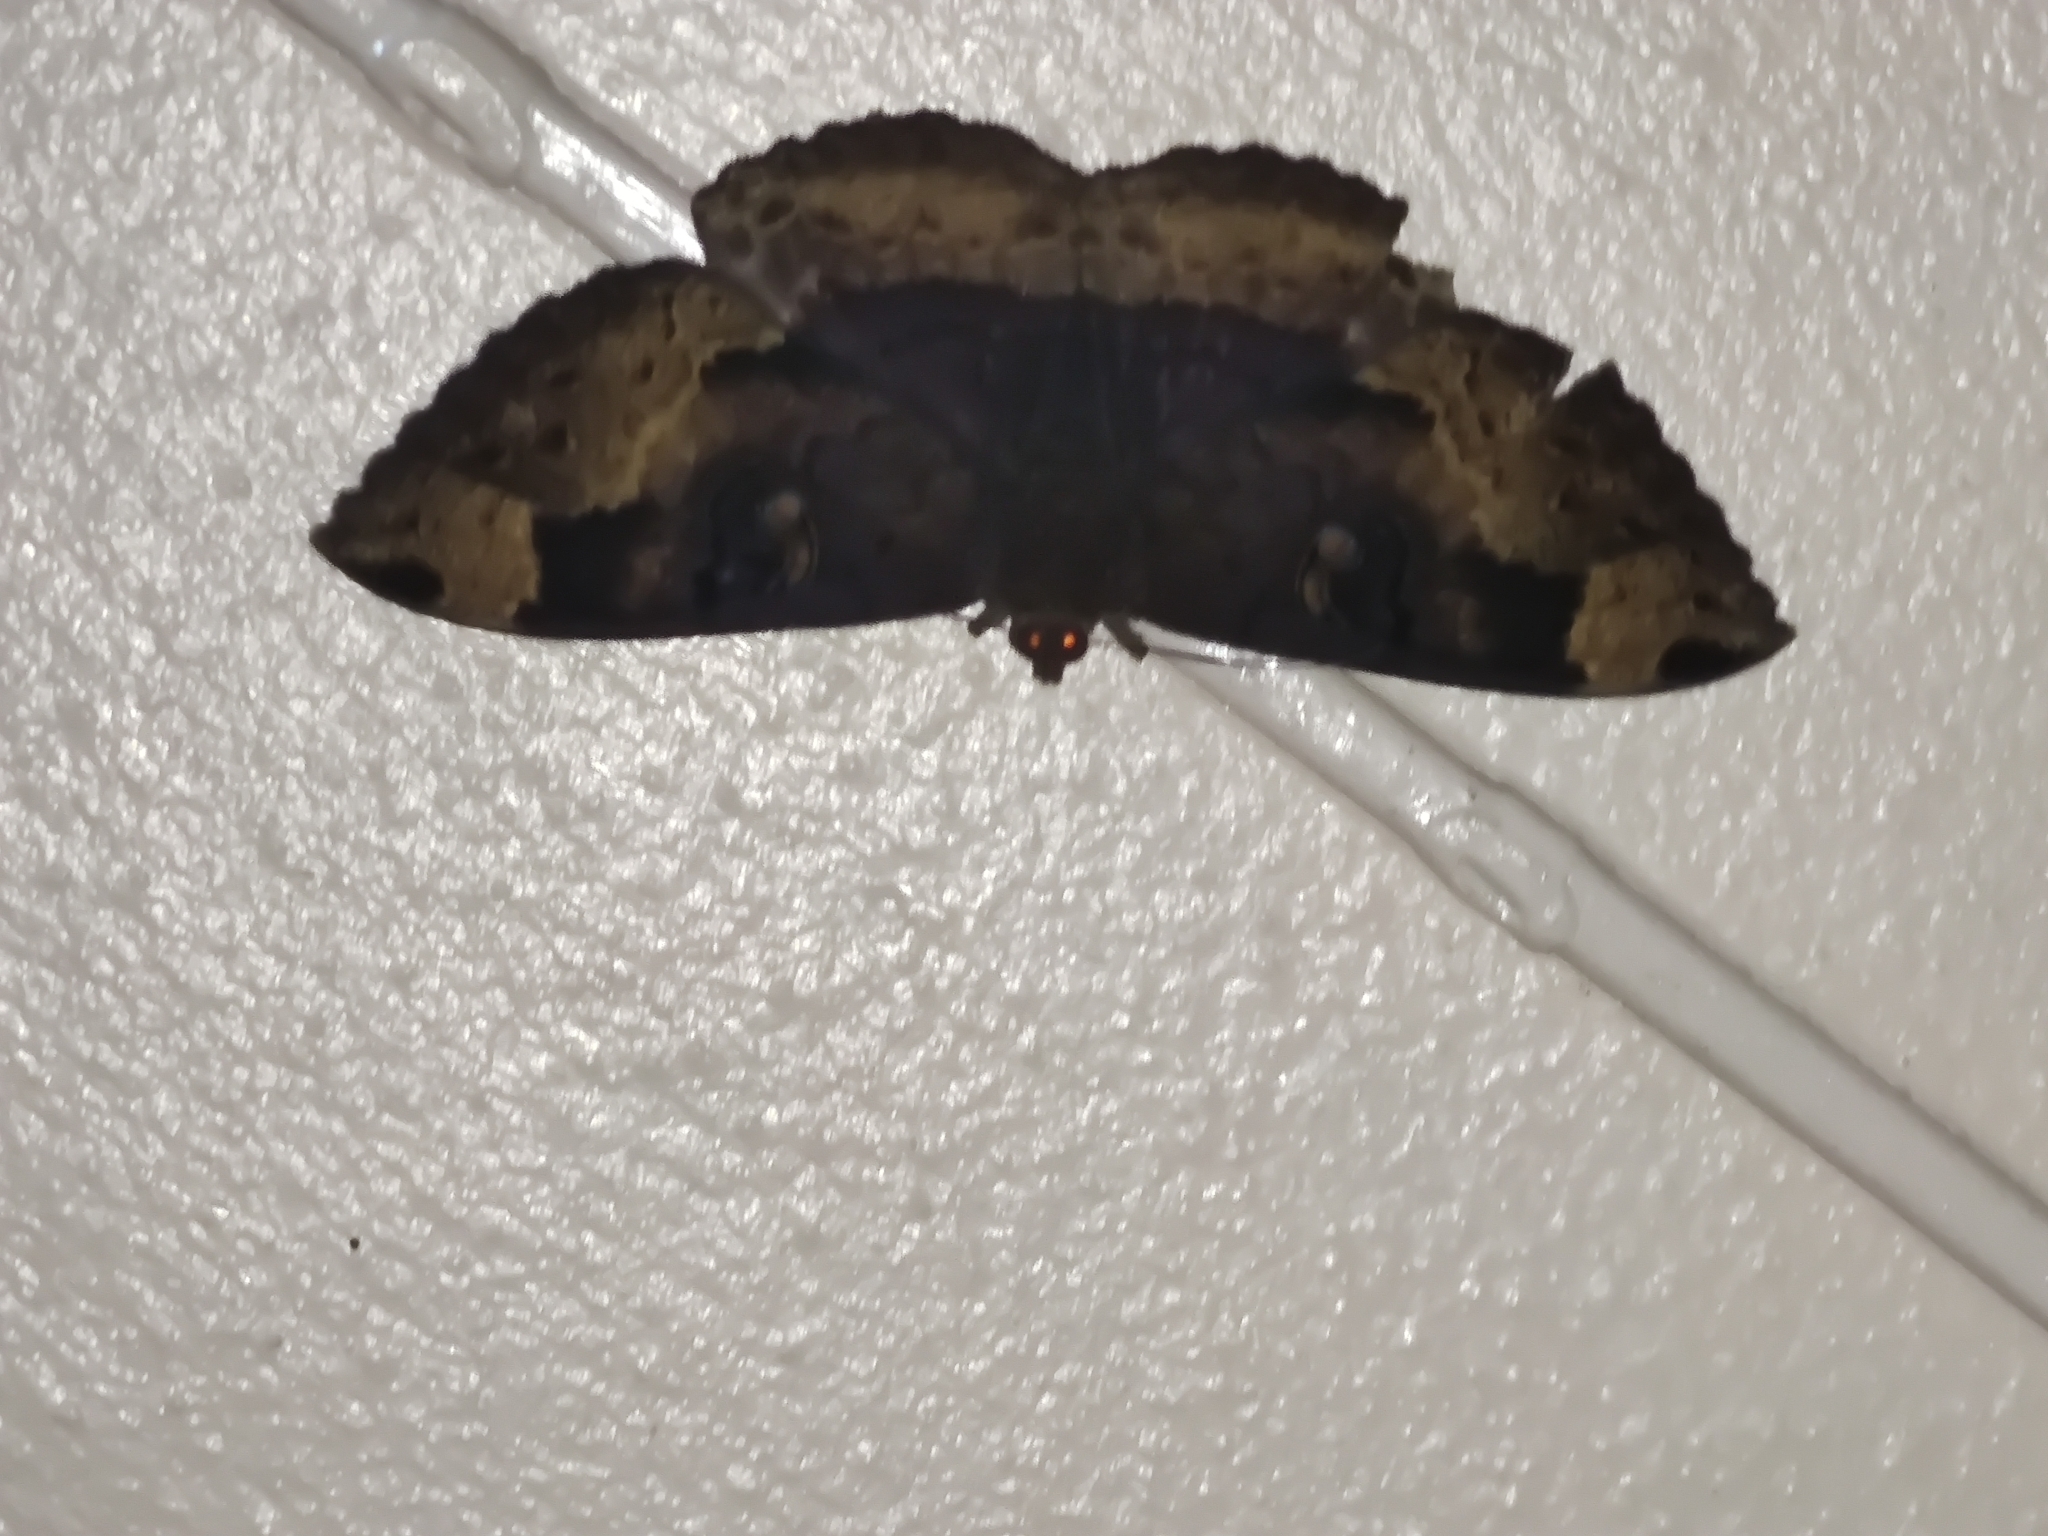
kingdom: Animalia
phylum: Arthropoda
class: Insecta
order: Lepidoptera
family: Erebidae
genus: Erebus
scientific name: Erebus caprimulgus
